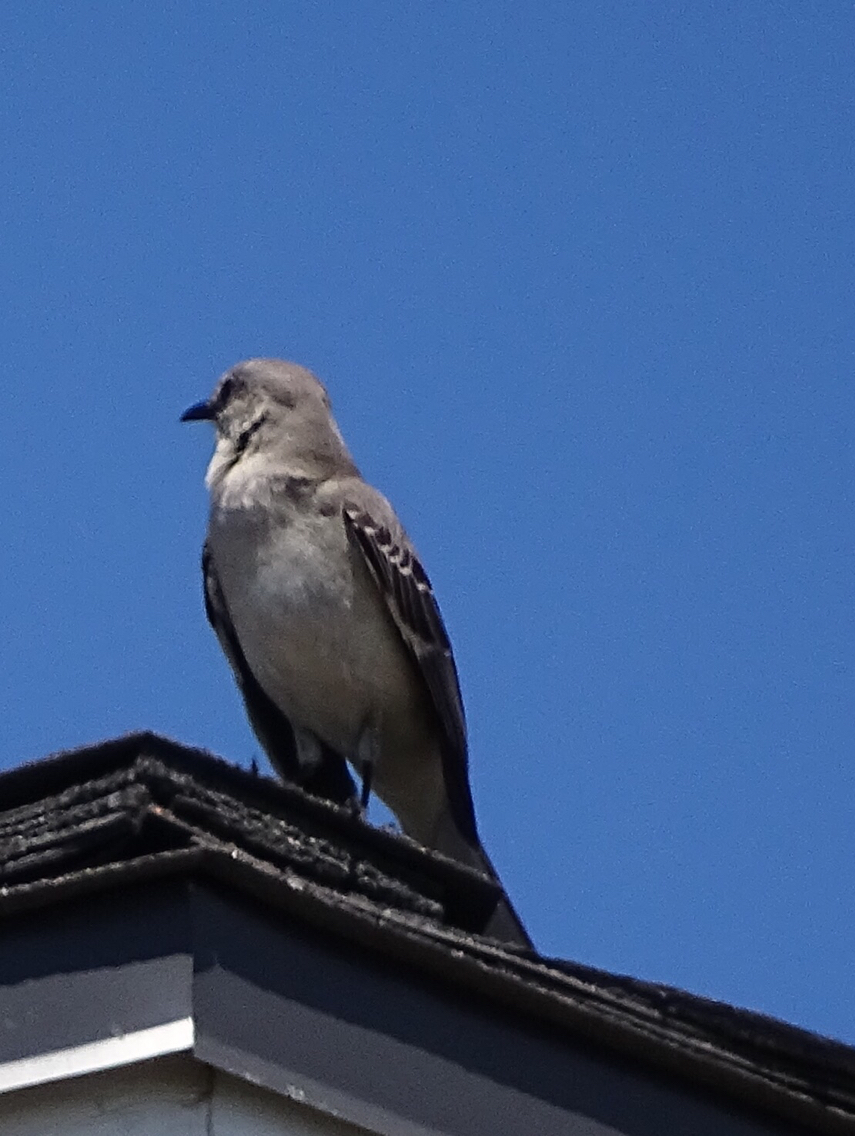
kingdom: Animalia
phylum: Chordata
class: Aves
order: Passeriformes
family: Mimidae
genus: Mimus
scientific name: Mimus polyglottos
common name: Northern mockingbird
